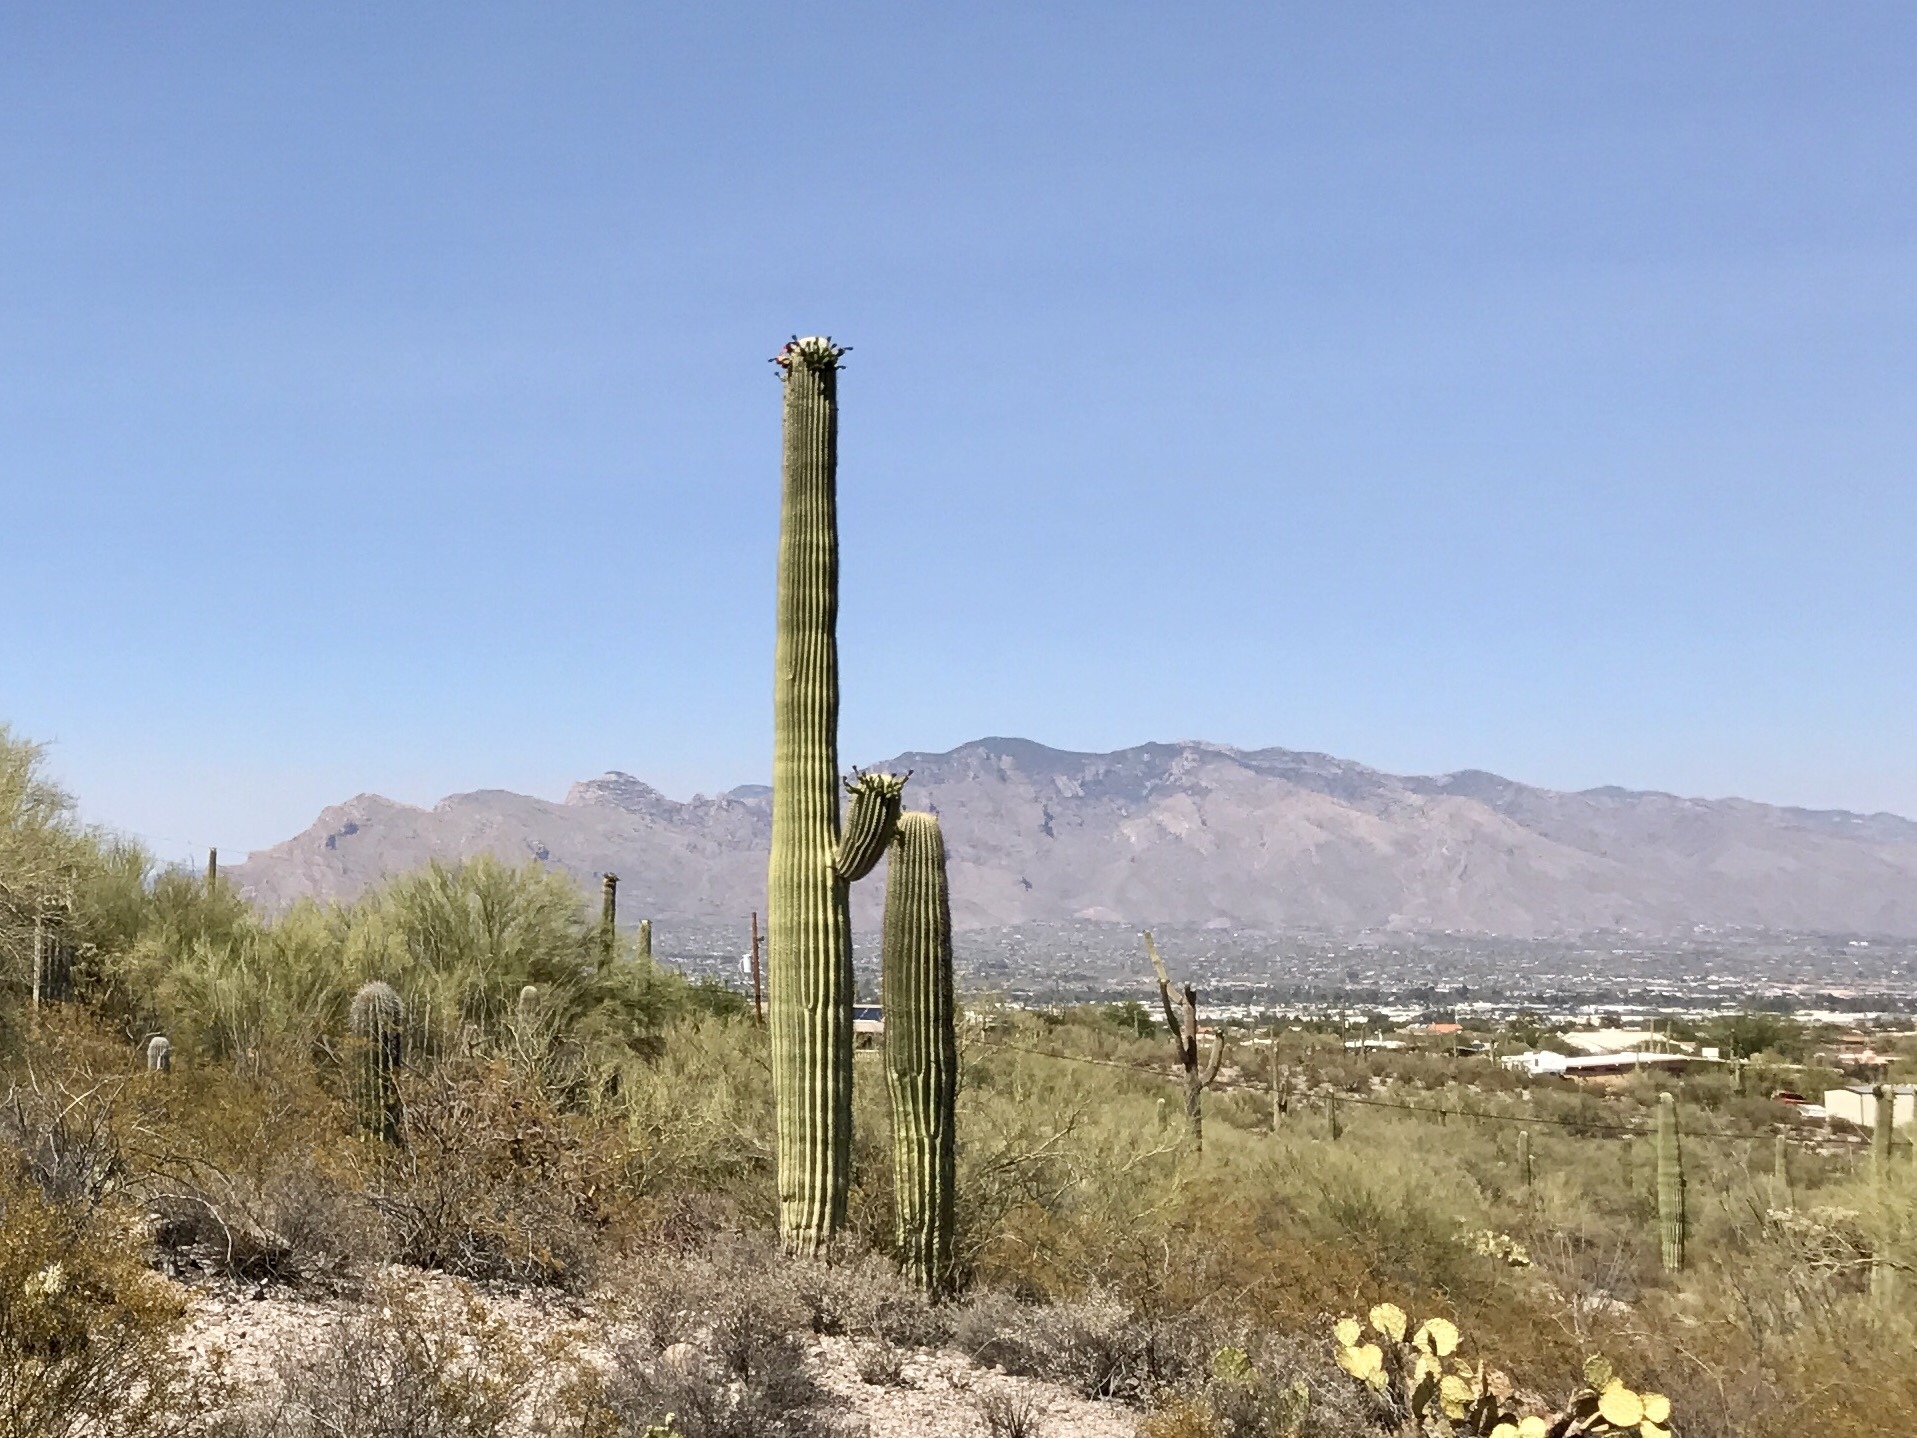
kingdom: Plantae
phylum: Tracheophyta
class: Magnoliopsida
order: Caryophyllales
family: Cactaceae
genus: Carnegiea
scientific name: Carnegiea gigantea
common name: Saguaro
